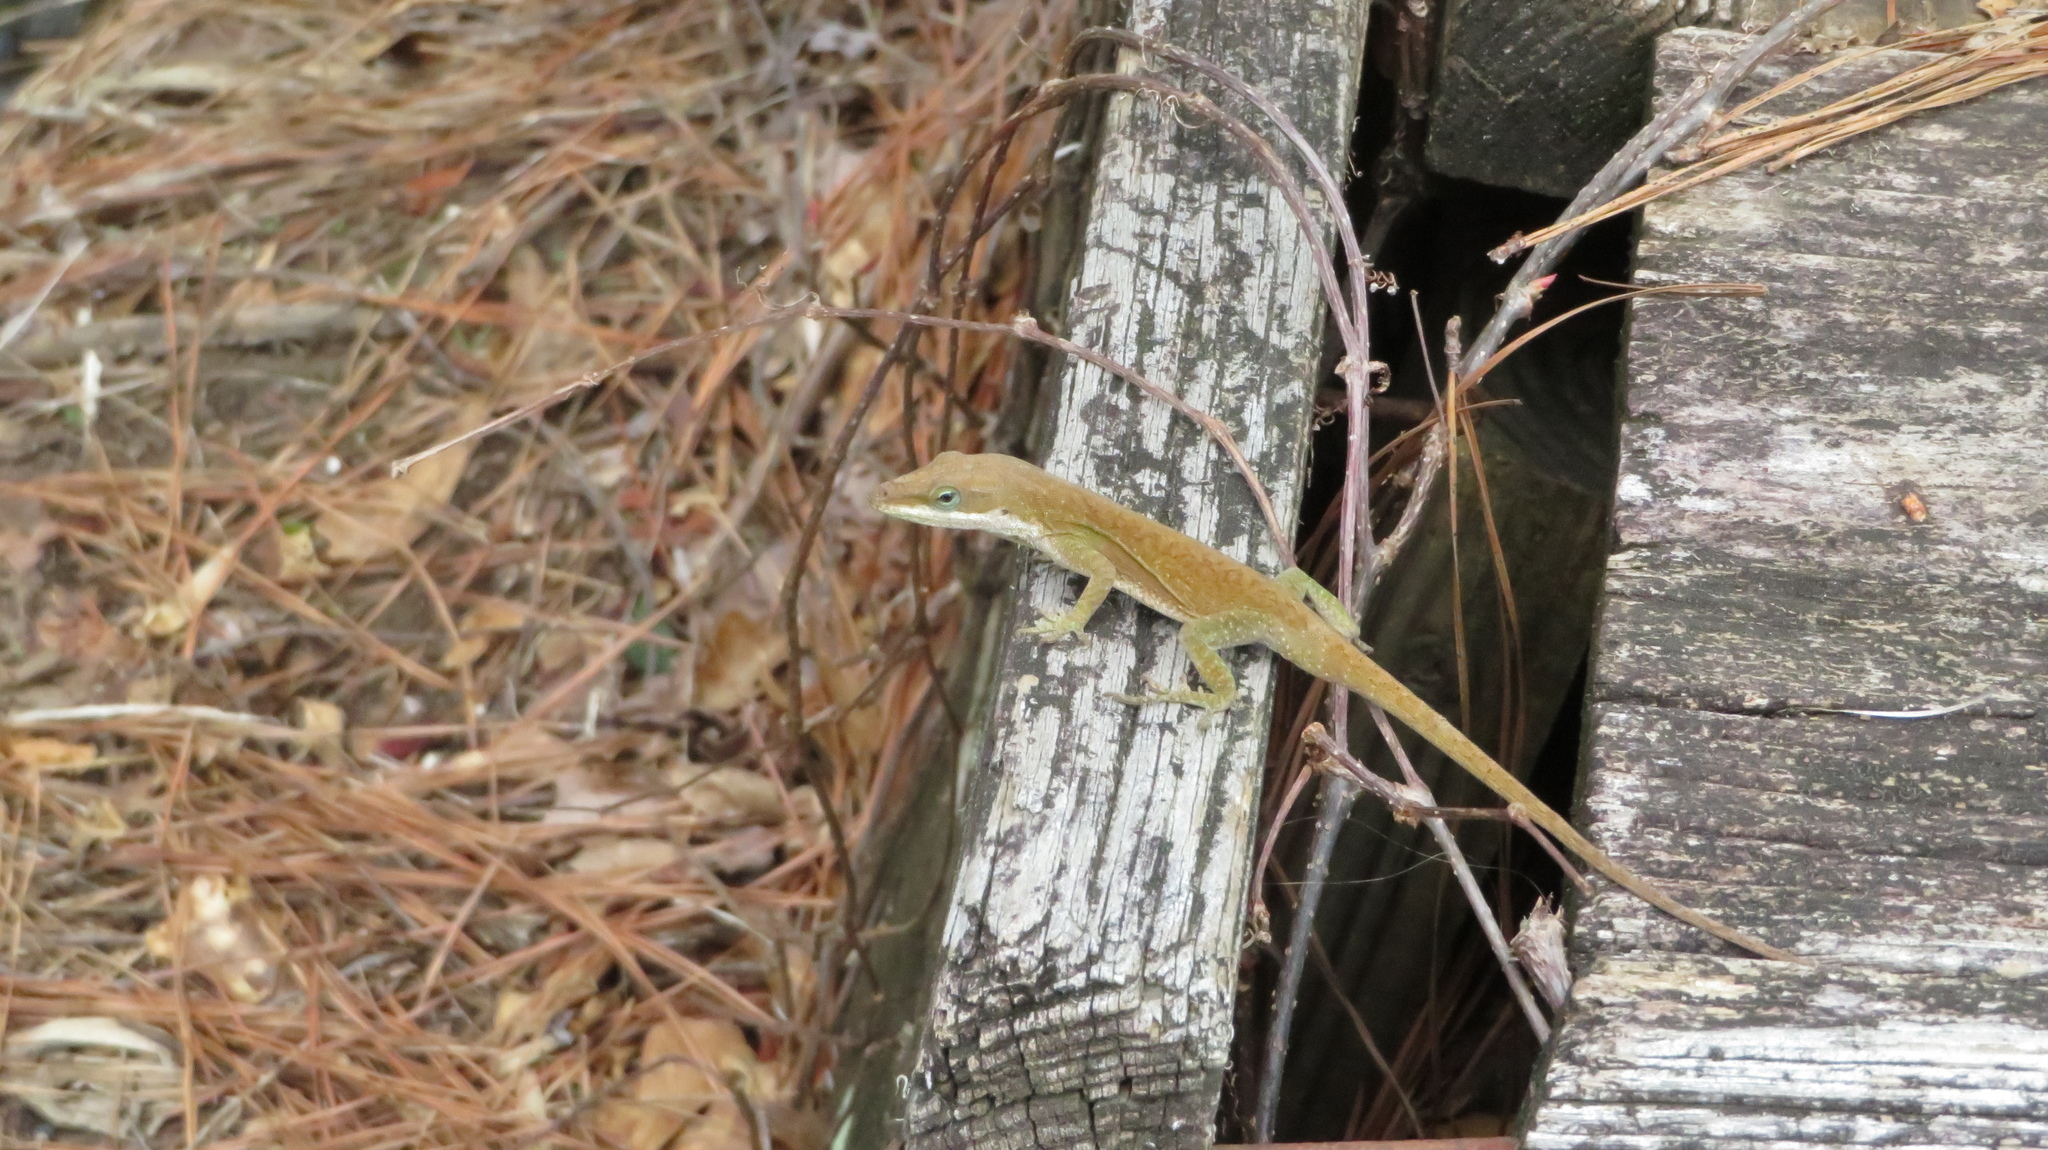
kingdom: Animalia
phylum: Chordata
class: Squamata
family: Dactyloidae
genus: Anolis
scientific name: Anolis carolinensis
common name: Green anole
